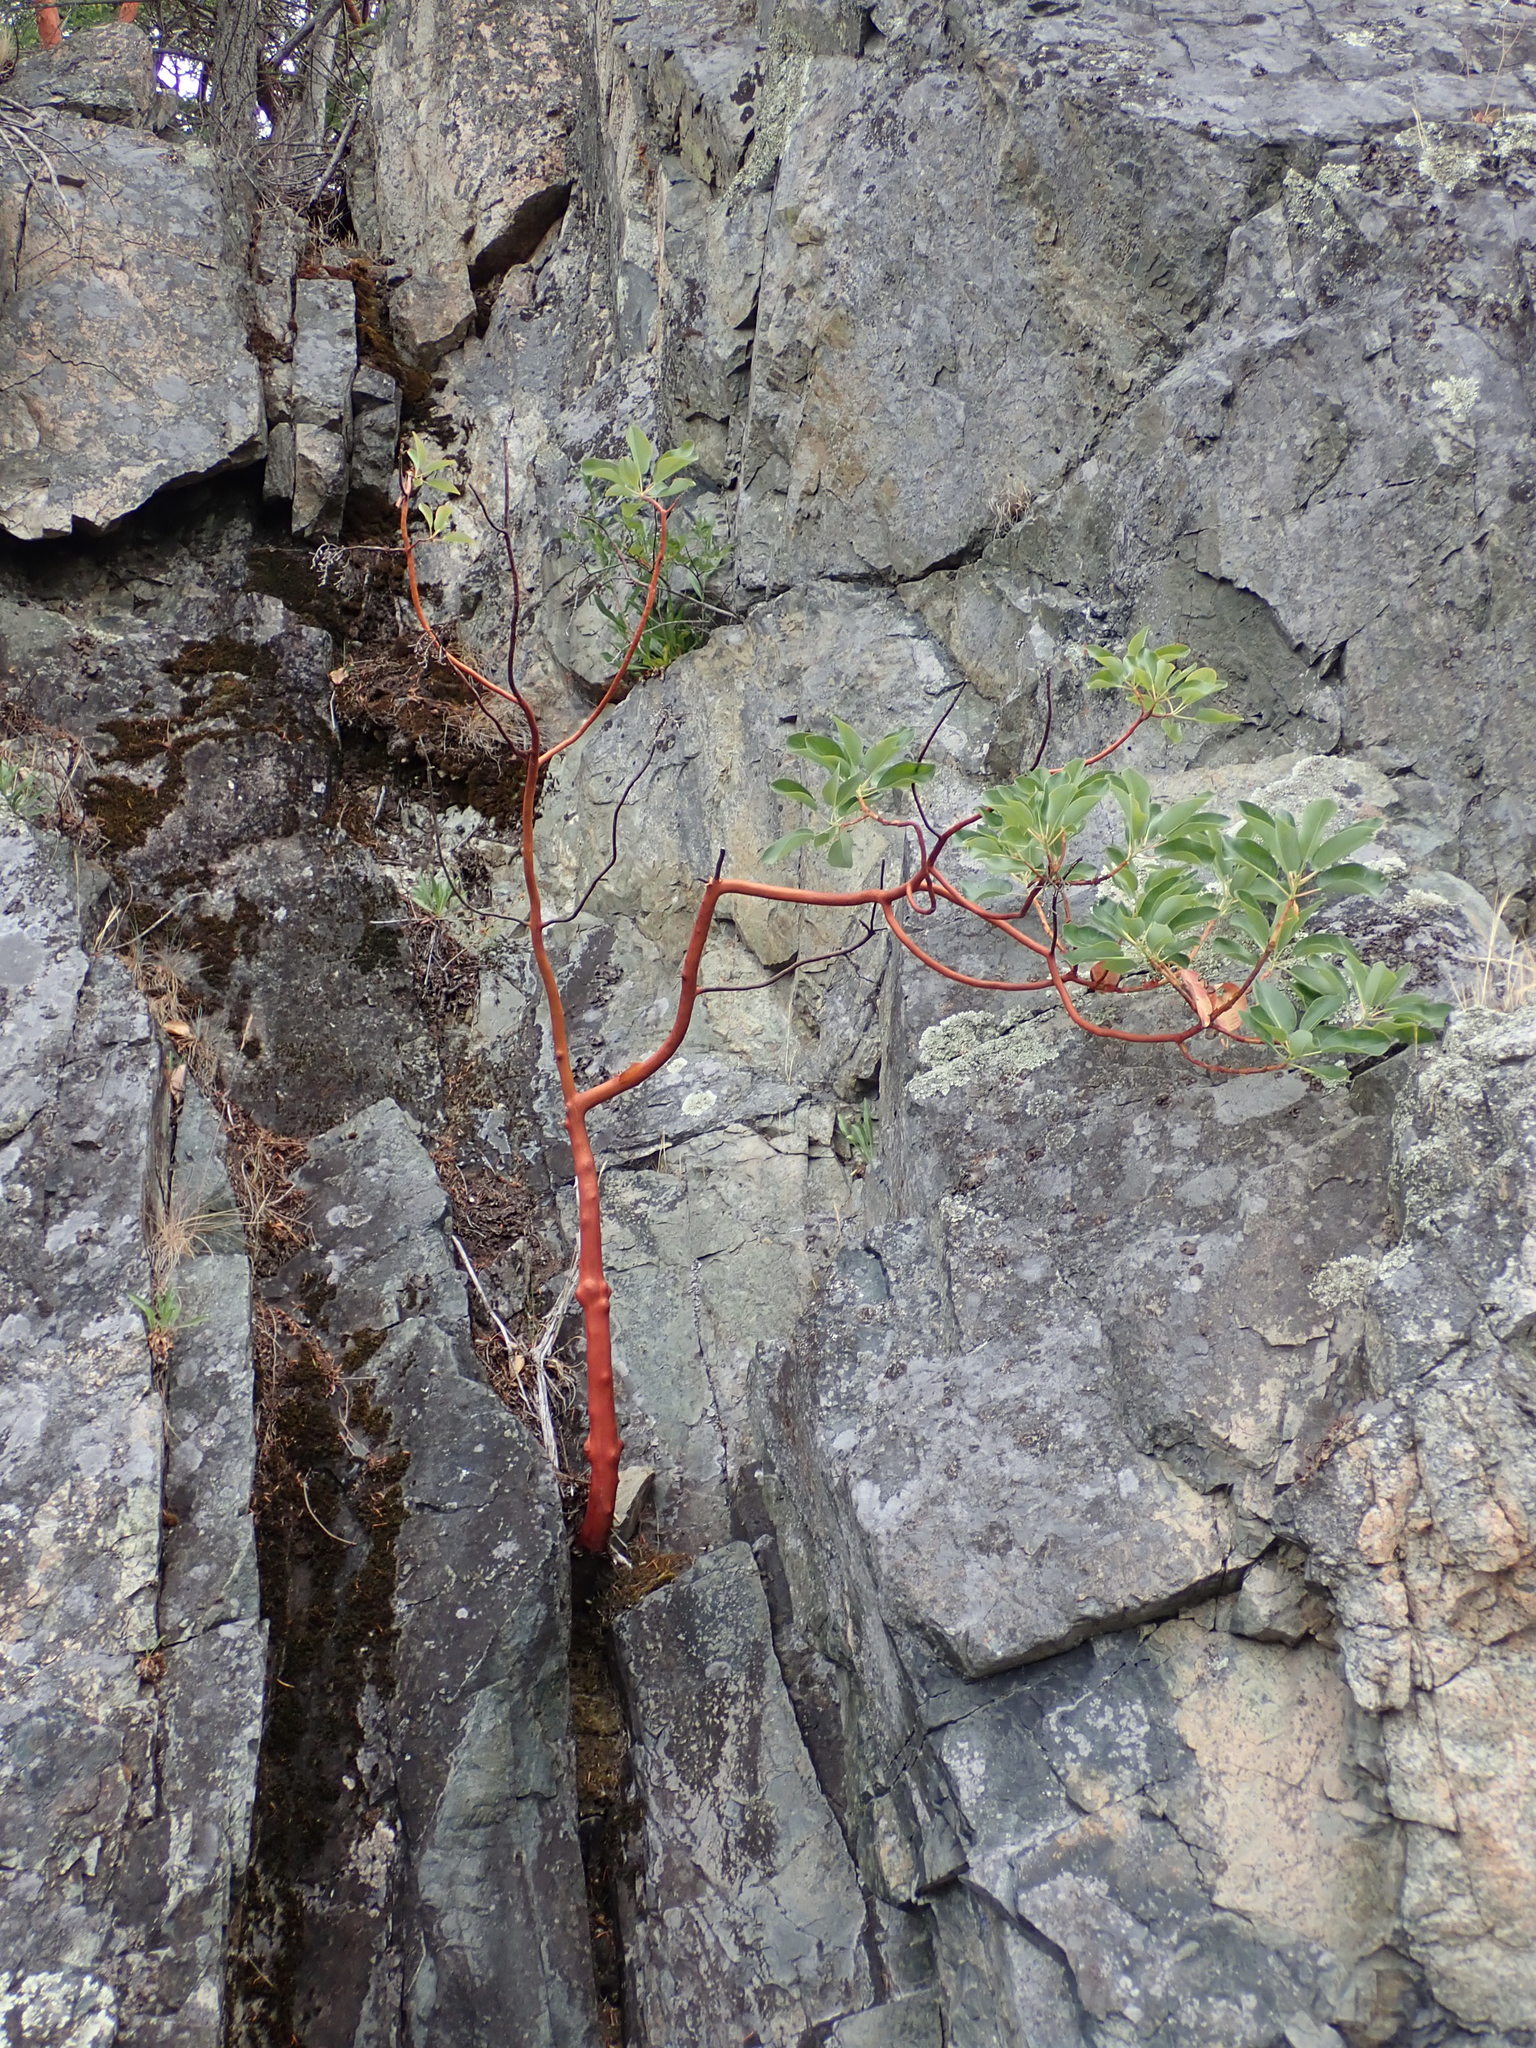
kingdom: Plantae
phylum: Tracheophyta
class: Magnoliopsida
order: Ericales
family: Ericaceae
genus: Arbutus
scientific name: Arbutus menziesii
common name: Pacific madrone
